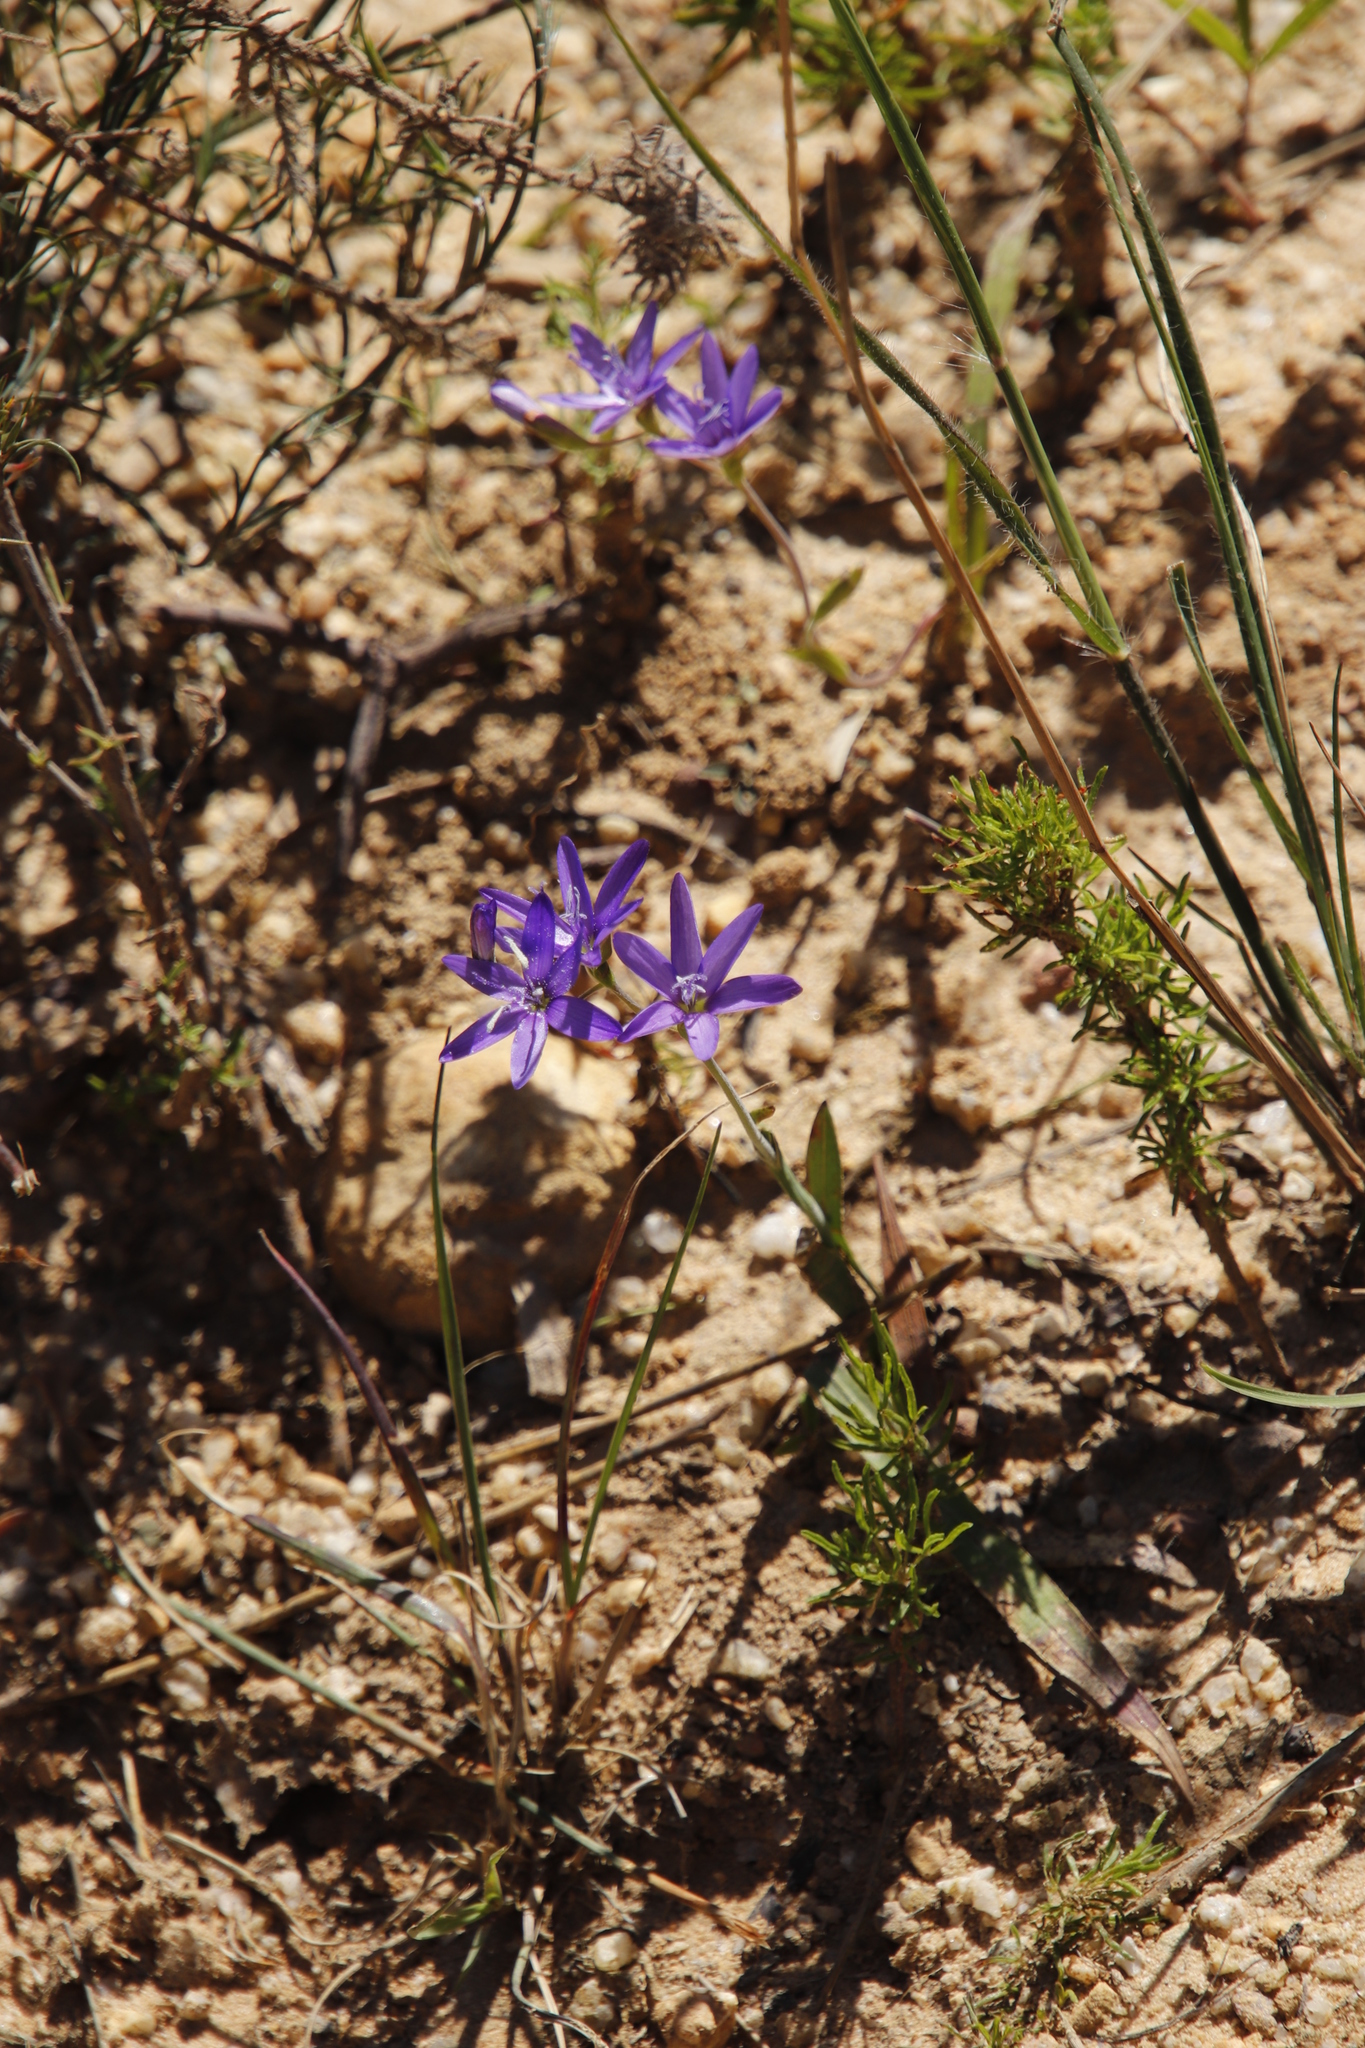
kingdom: Plantae
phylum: Tracheophyta
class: Liliopsida
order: Asparagales
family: Iridaceae
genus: Geissorhiza
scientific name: Geissorhiza aspera
